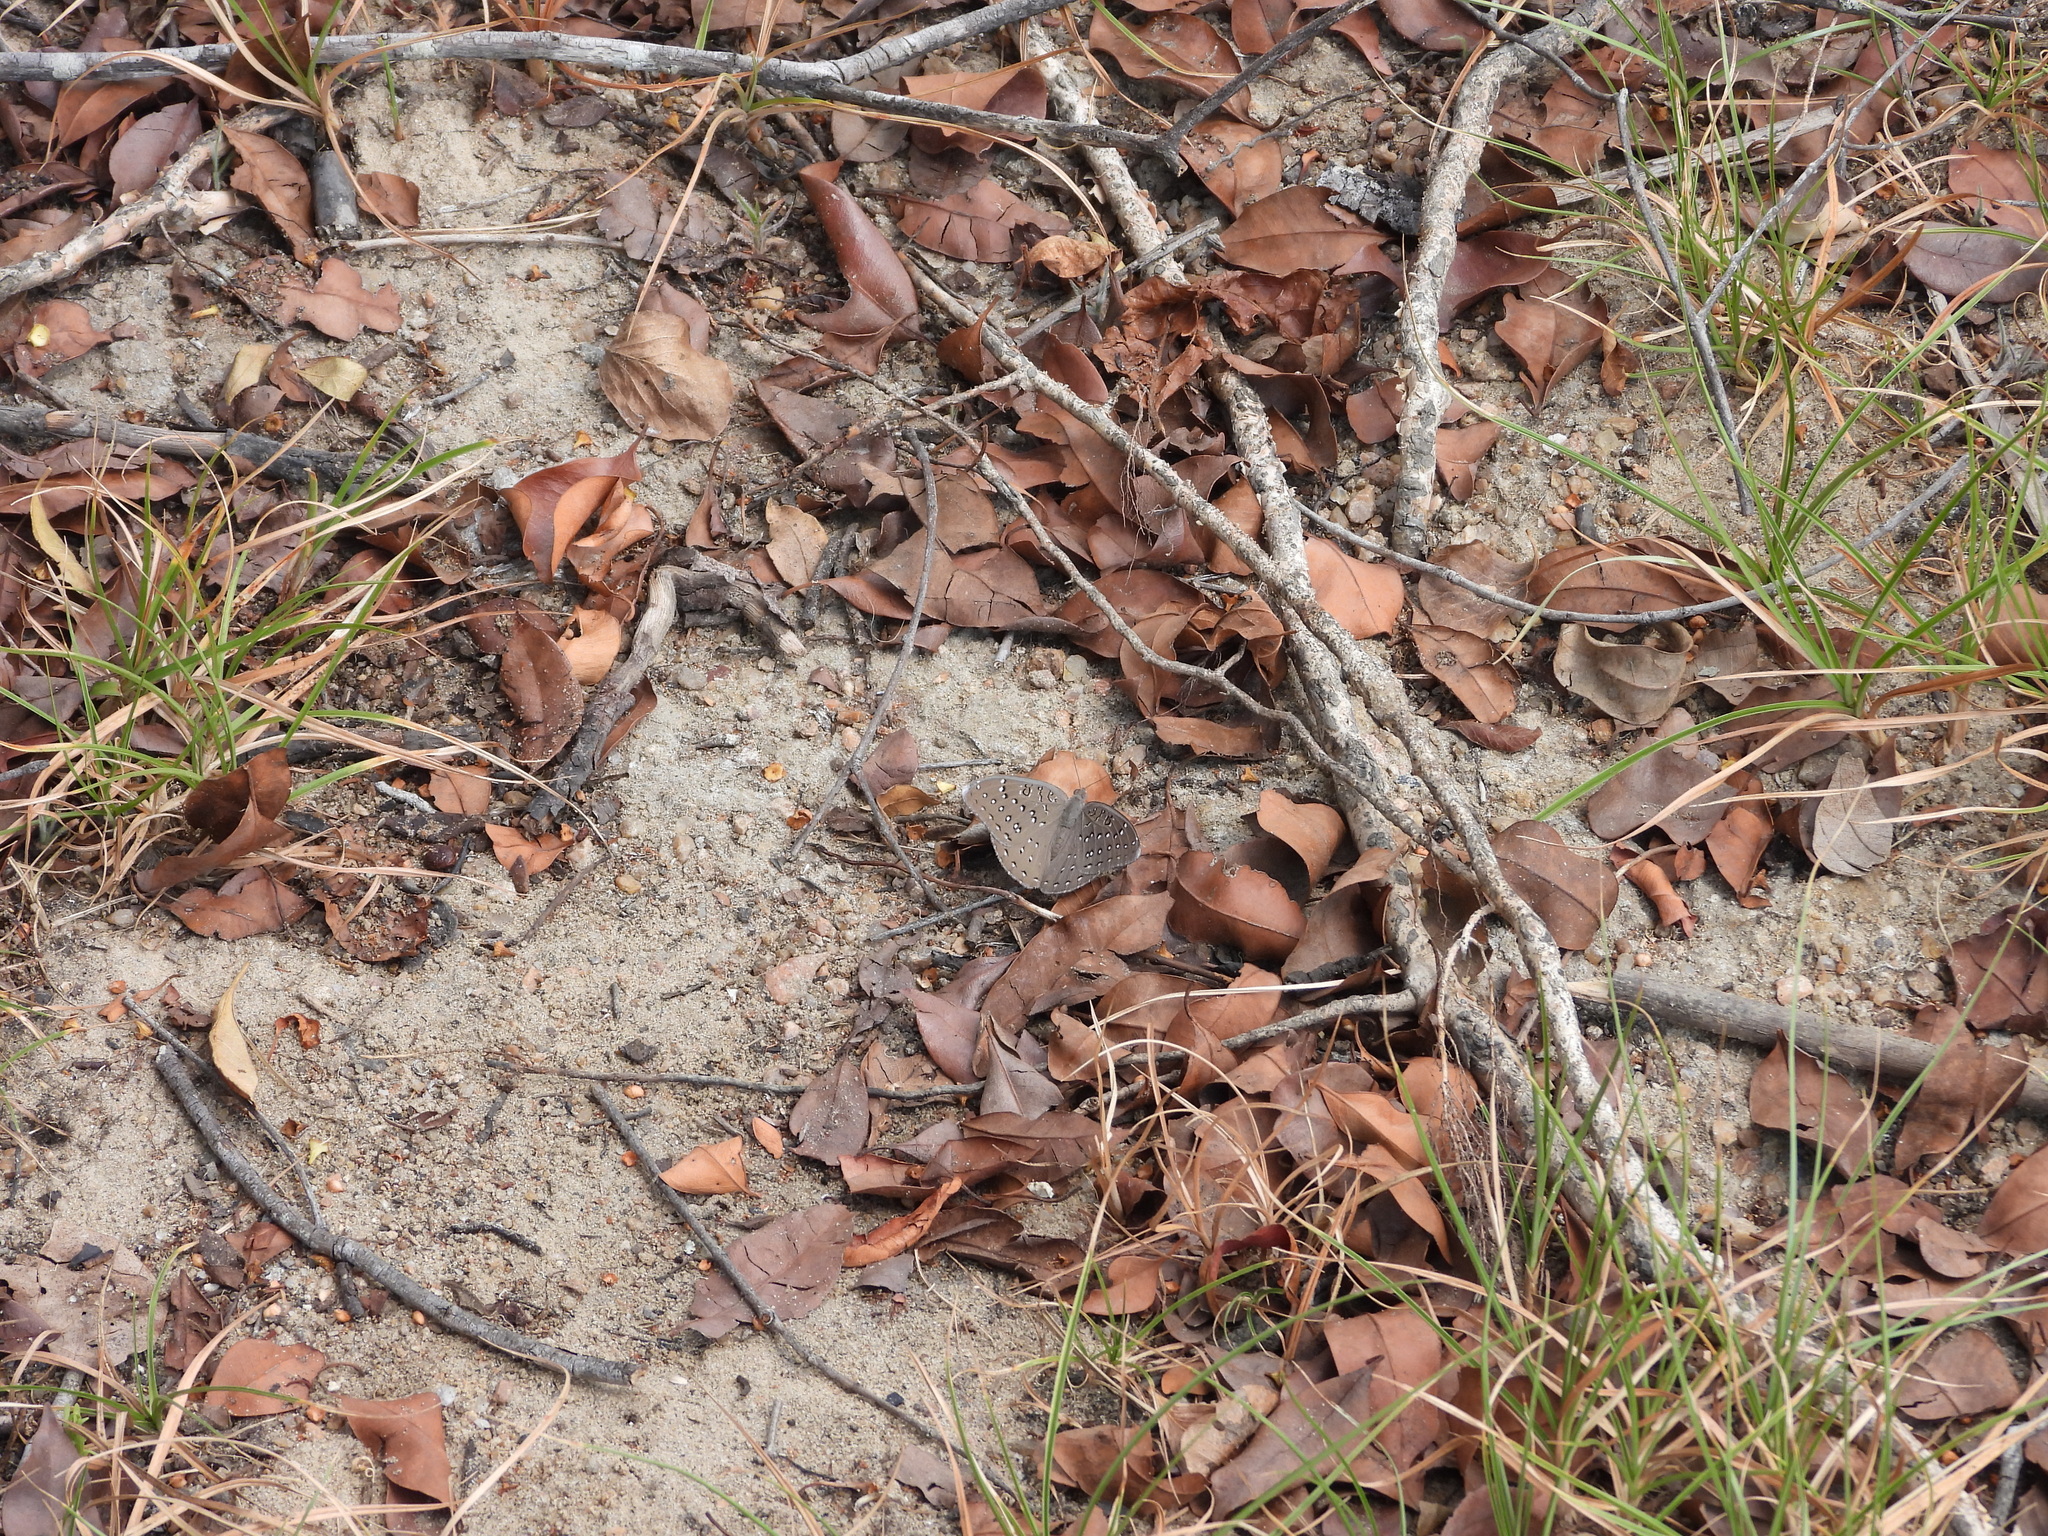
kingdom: Animalia
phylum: Arthropoda
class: Insecta
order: Lepidoptera
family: Nymphalidae
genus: Hamanumida
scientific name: Hamanumida daedalus
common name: Guinea-fowl butterfly
